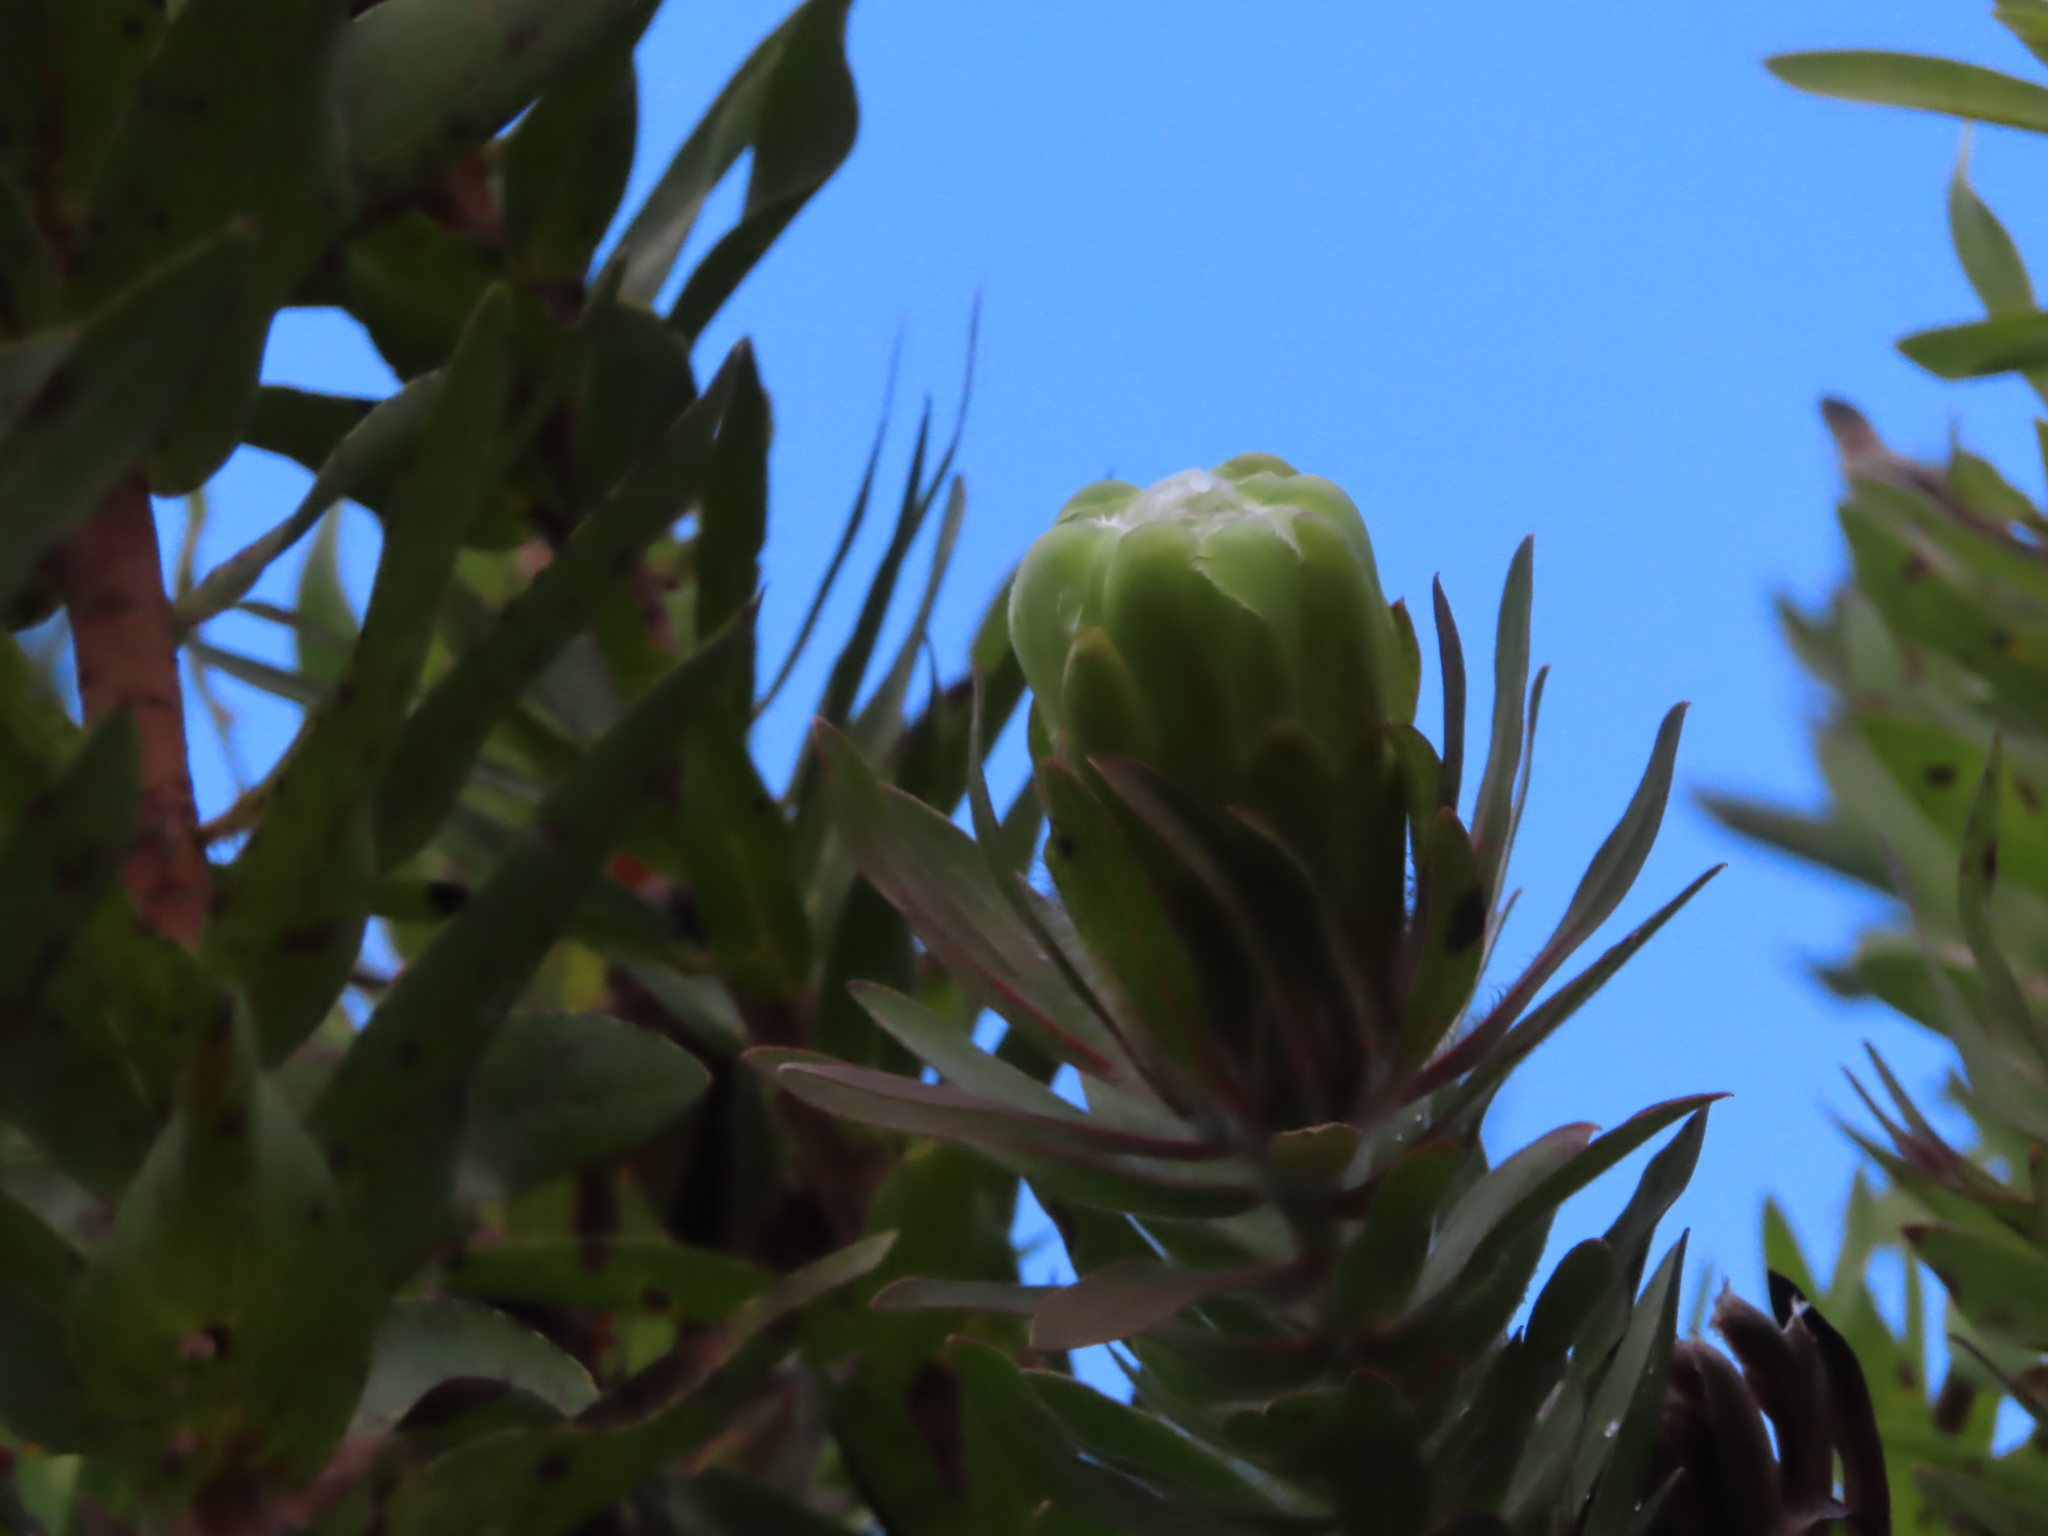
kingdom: Plantae
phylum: Tracheophyta
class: Magnoliopsida
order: Proteales
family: Proteaceae
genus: Protea
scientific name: Protea coronata
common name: Green sugarbush
